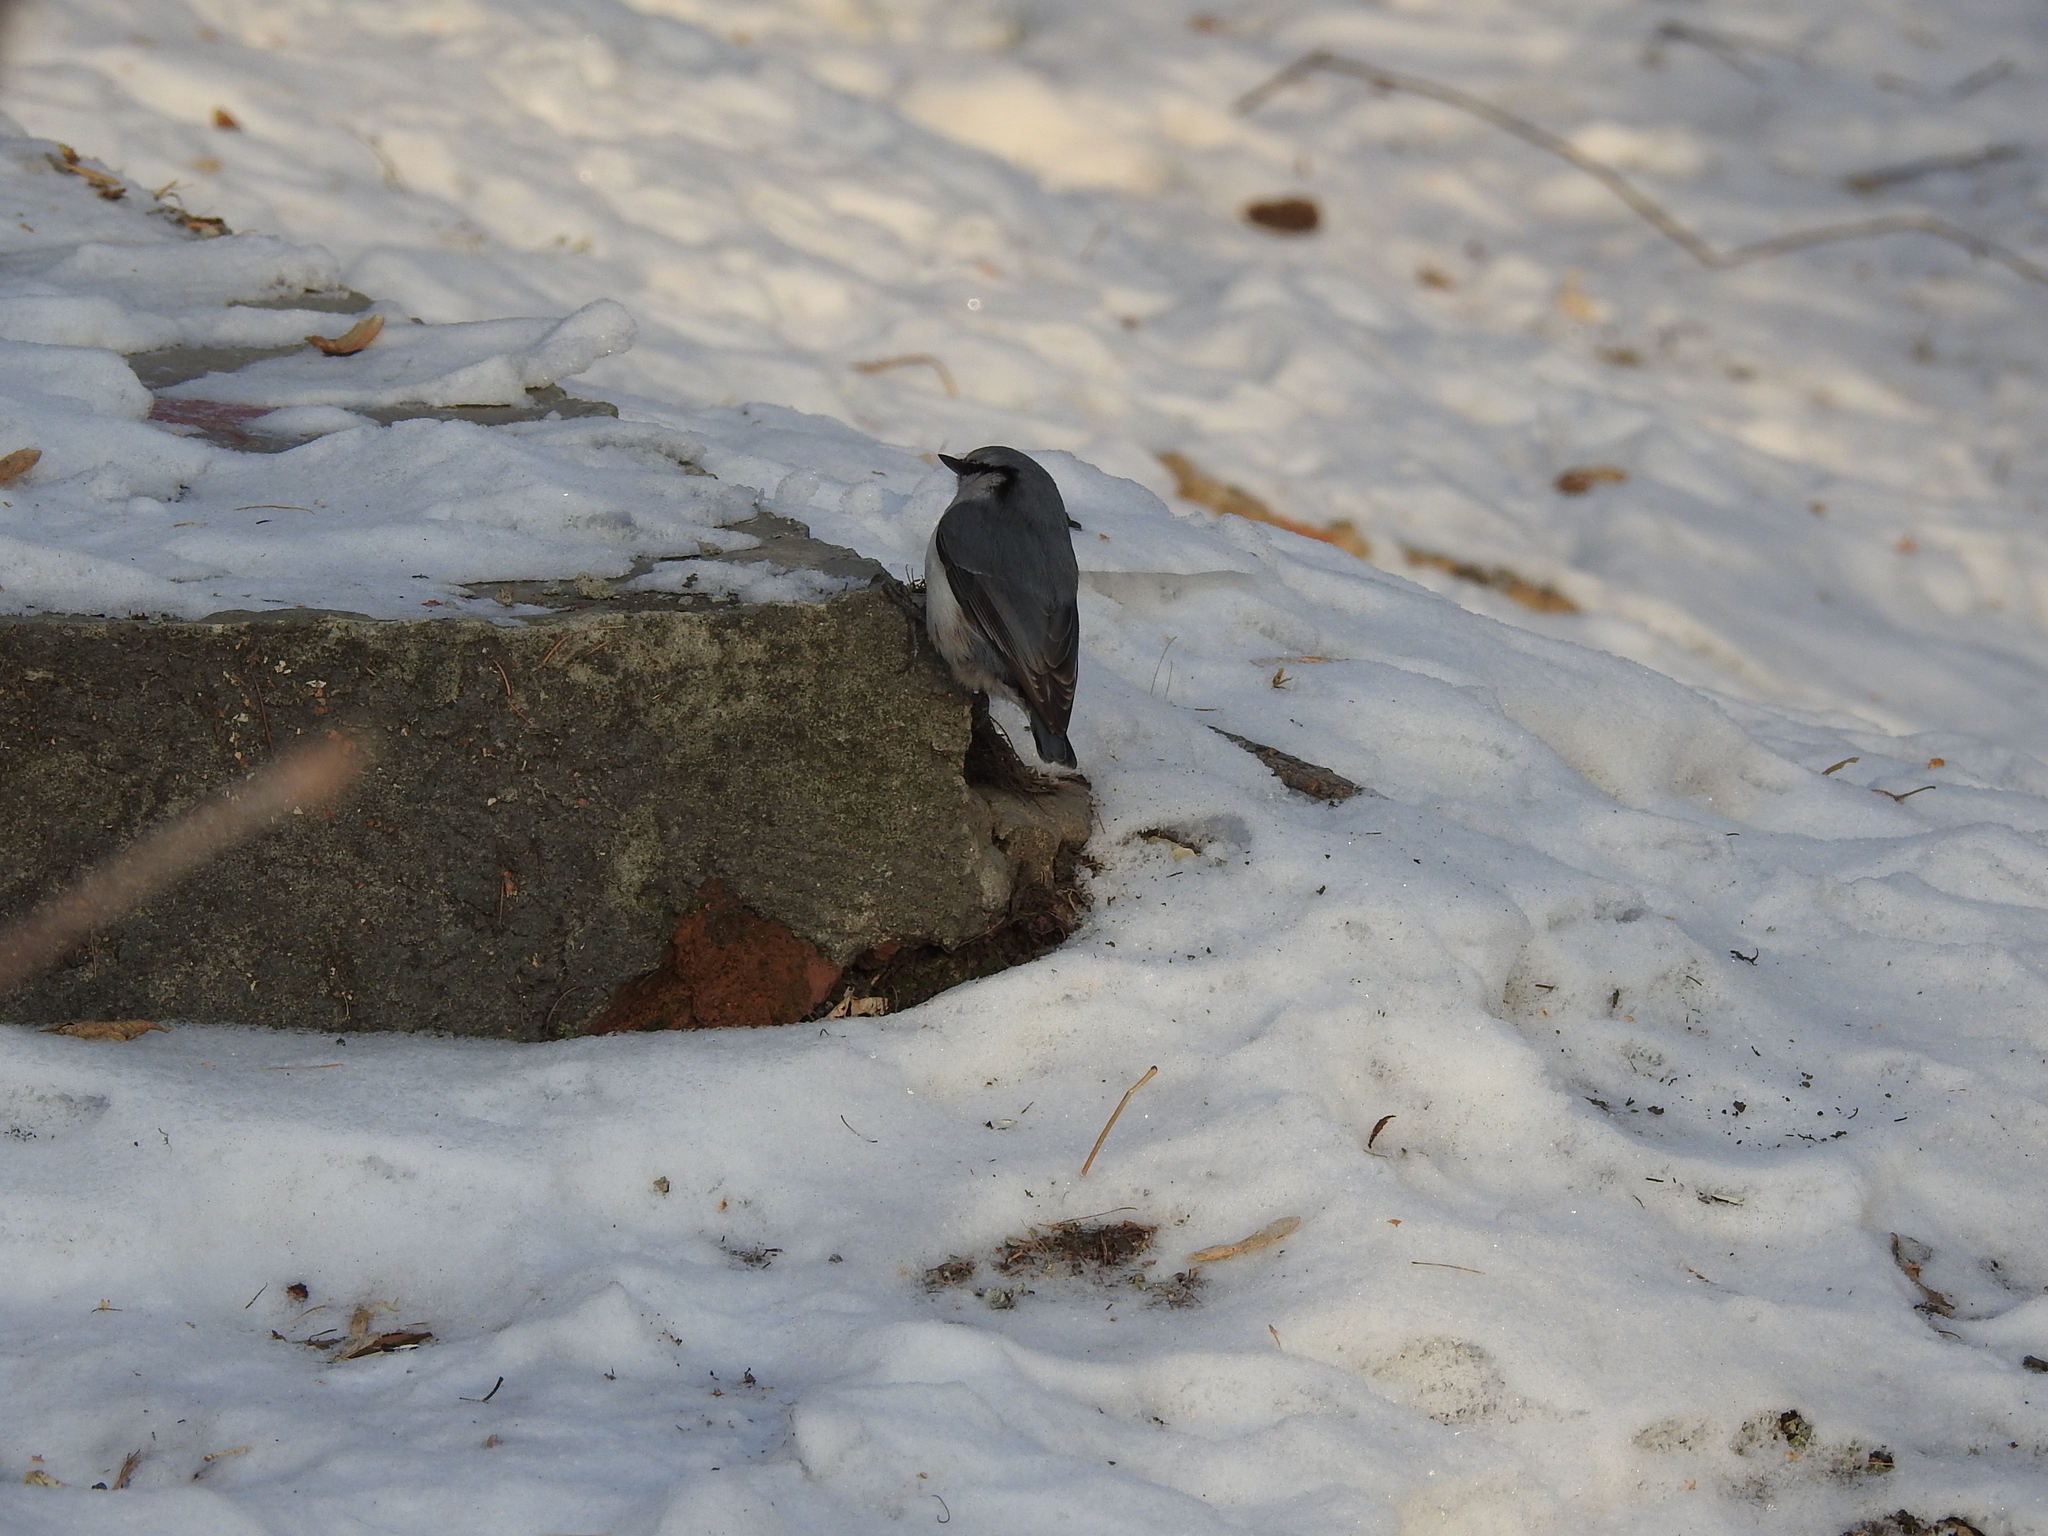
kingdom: Animalia
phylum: Chordata
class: Aves
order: Passeriformes
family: Sittidae
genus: Sitta
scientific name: Sitta europaea
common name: Eurasian nuthatch
